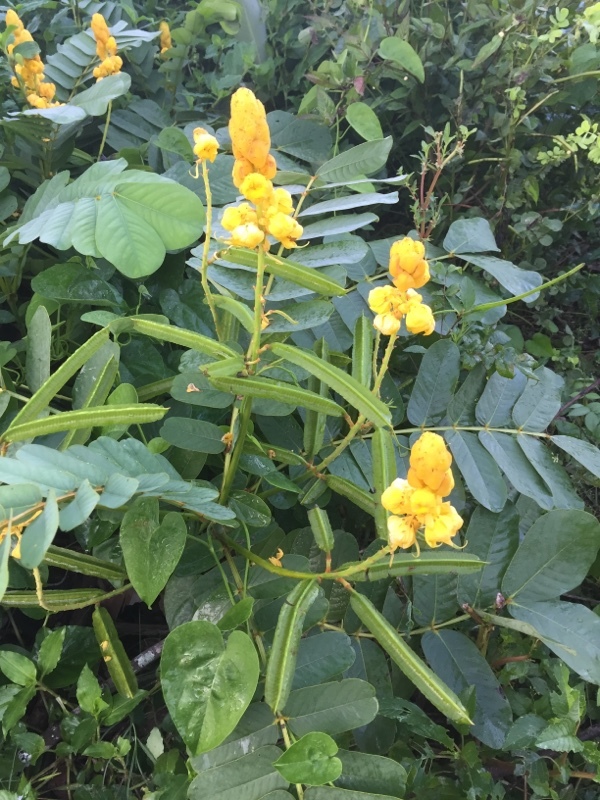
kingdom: Plantae
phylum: Tracheophyta
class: Magnoliopsida
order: Fabales
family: Fabaceae
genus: Senna
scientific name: Senna alata
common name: Emperor's candlesticks
